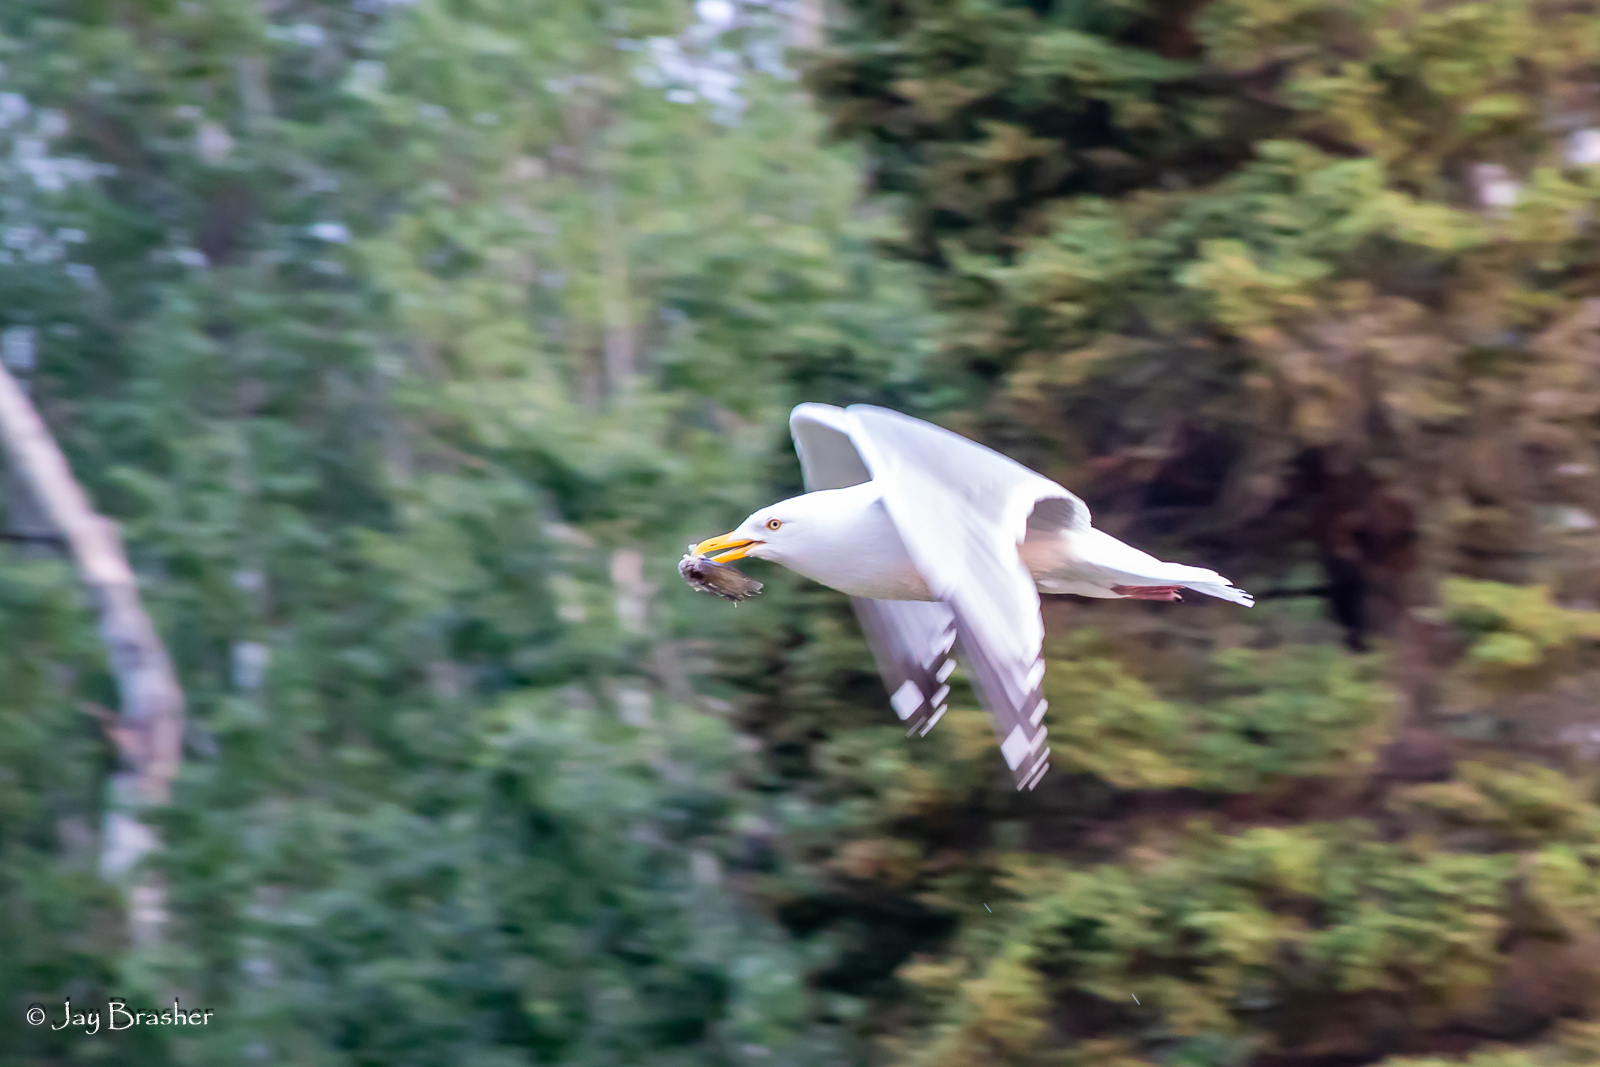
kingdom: Animalia
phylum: Chordata
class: Aves
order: Charadriiformes
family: Laridae
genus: Larus
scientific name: Larus argentatus
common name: Herring gull
